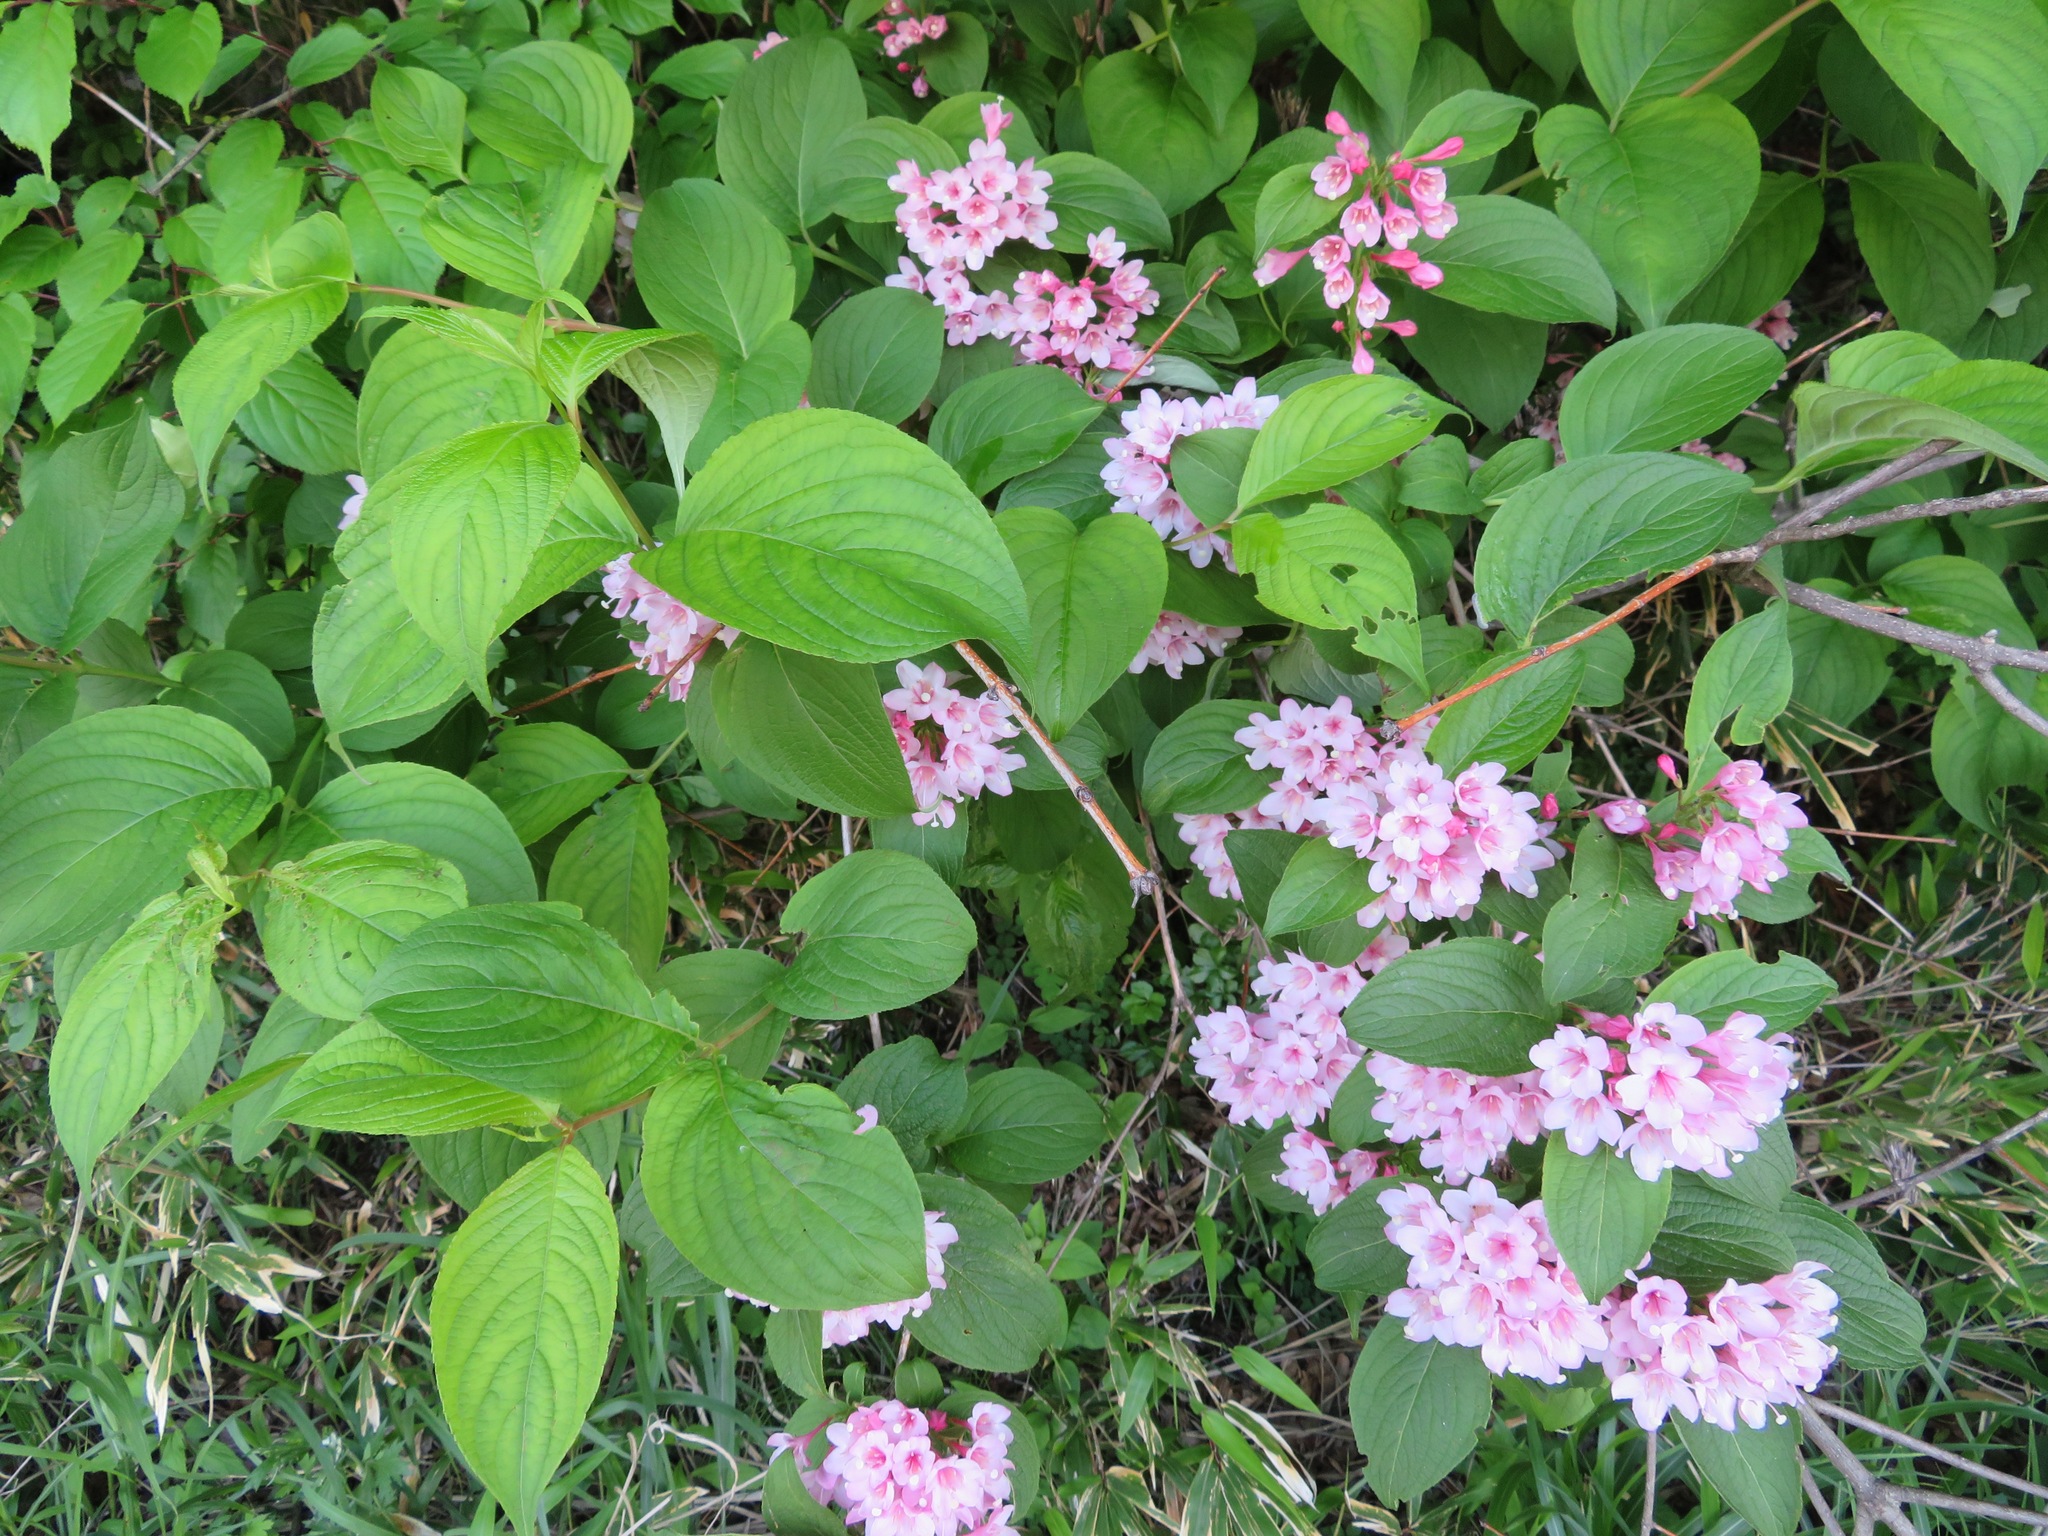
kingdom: Plantae
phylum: Tracheophyta
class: Magnoliopsida
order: Dipsacales
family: Caprifoliaceae
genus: Weigela
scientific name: Weigela hortensis
